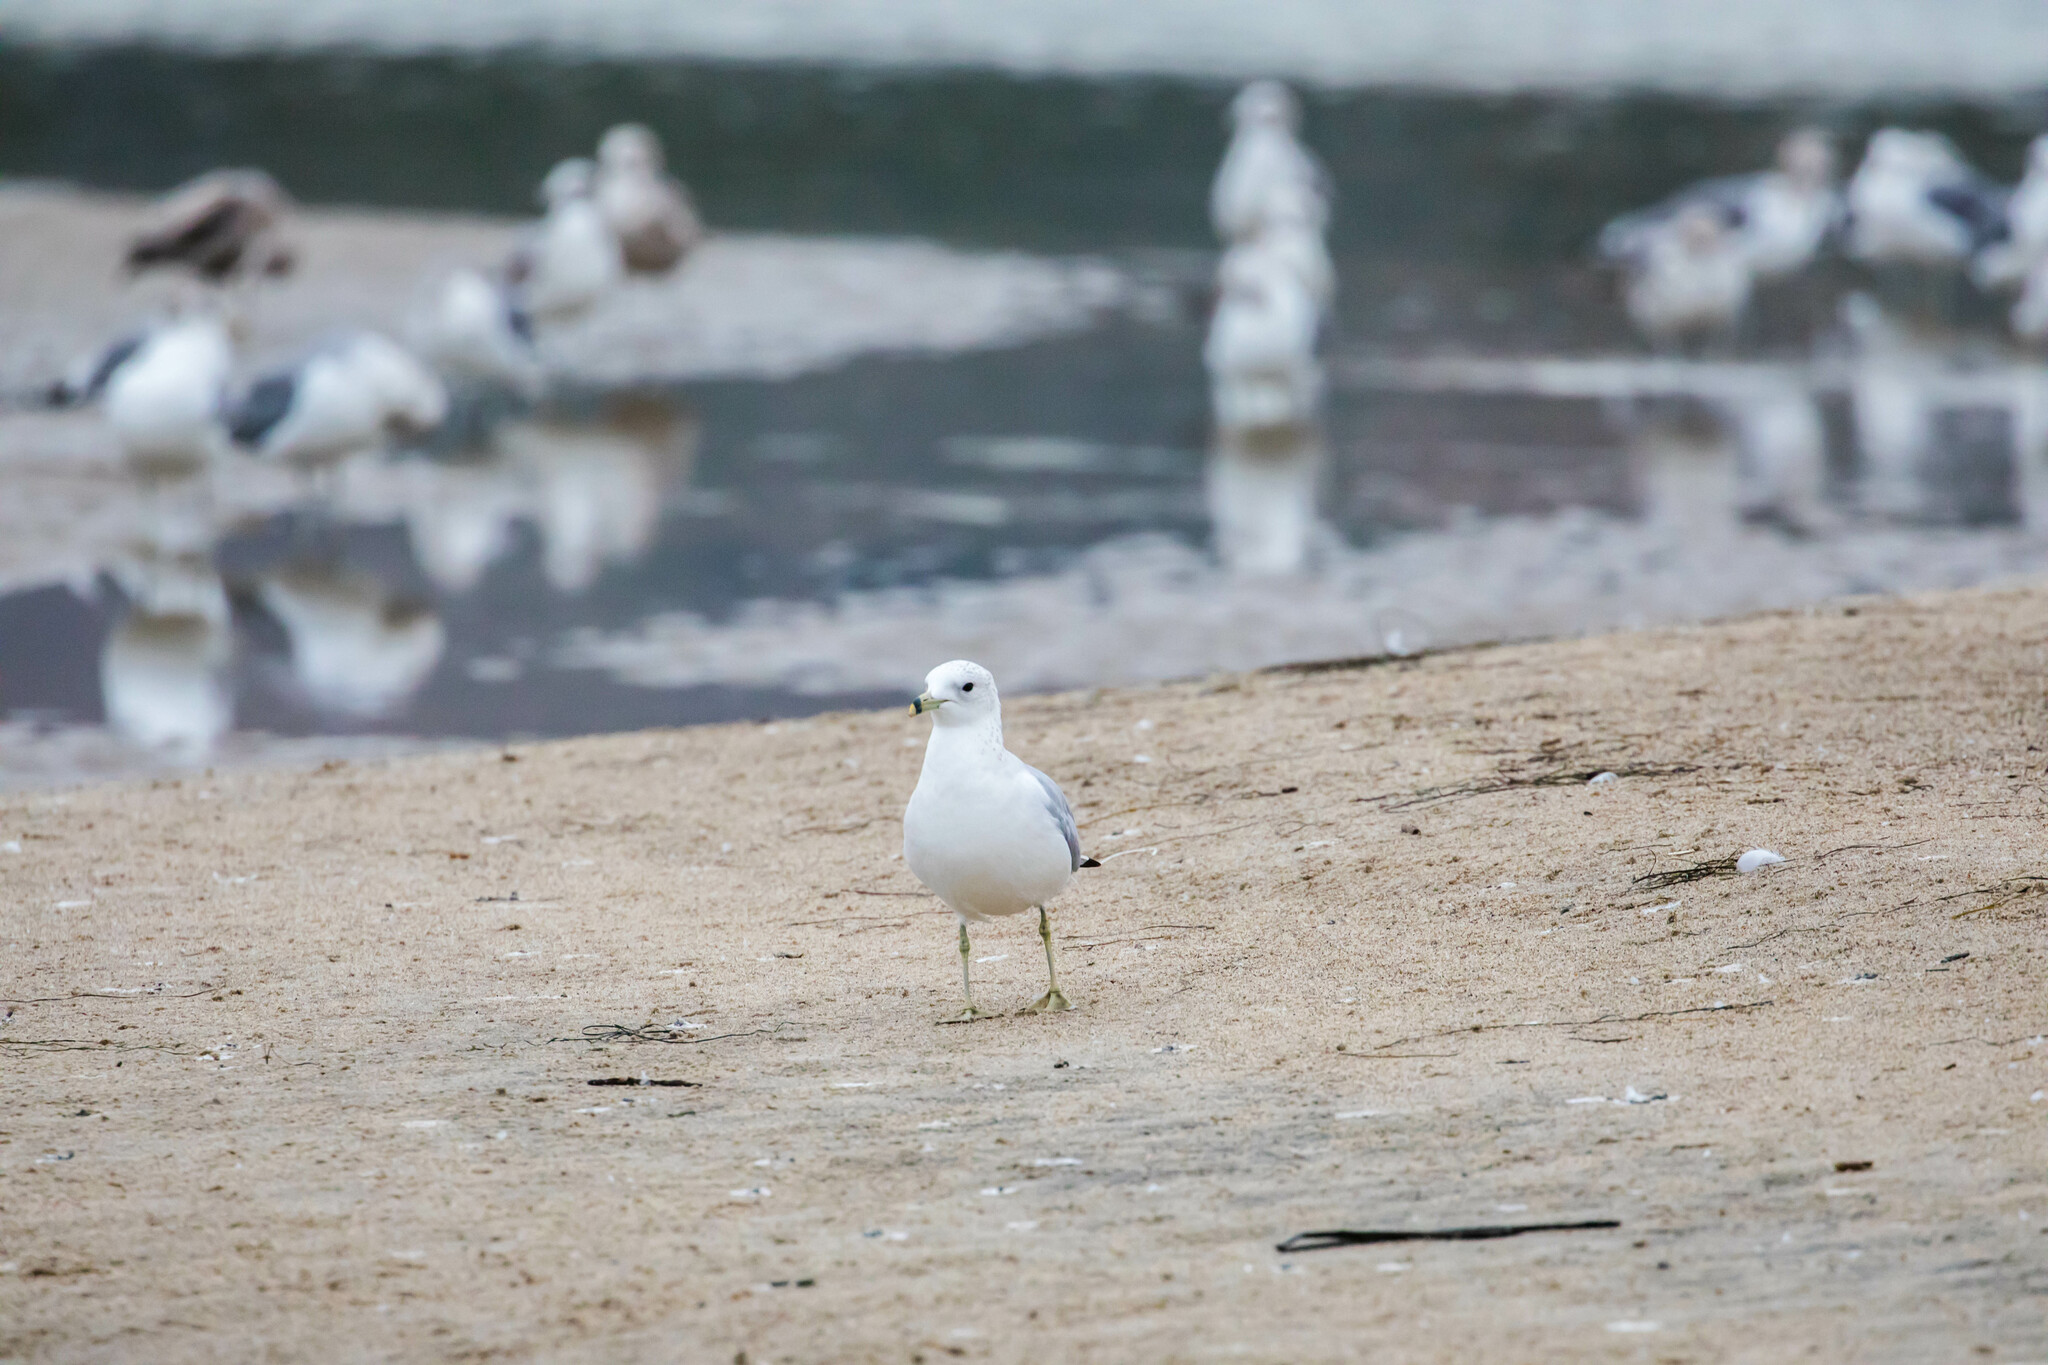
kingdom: Animalia
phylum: Chordata
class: Aves
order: Charadriiformes
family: Laridae
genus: Larus
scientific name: Larus delawarensis
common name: Ring-billed gull
